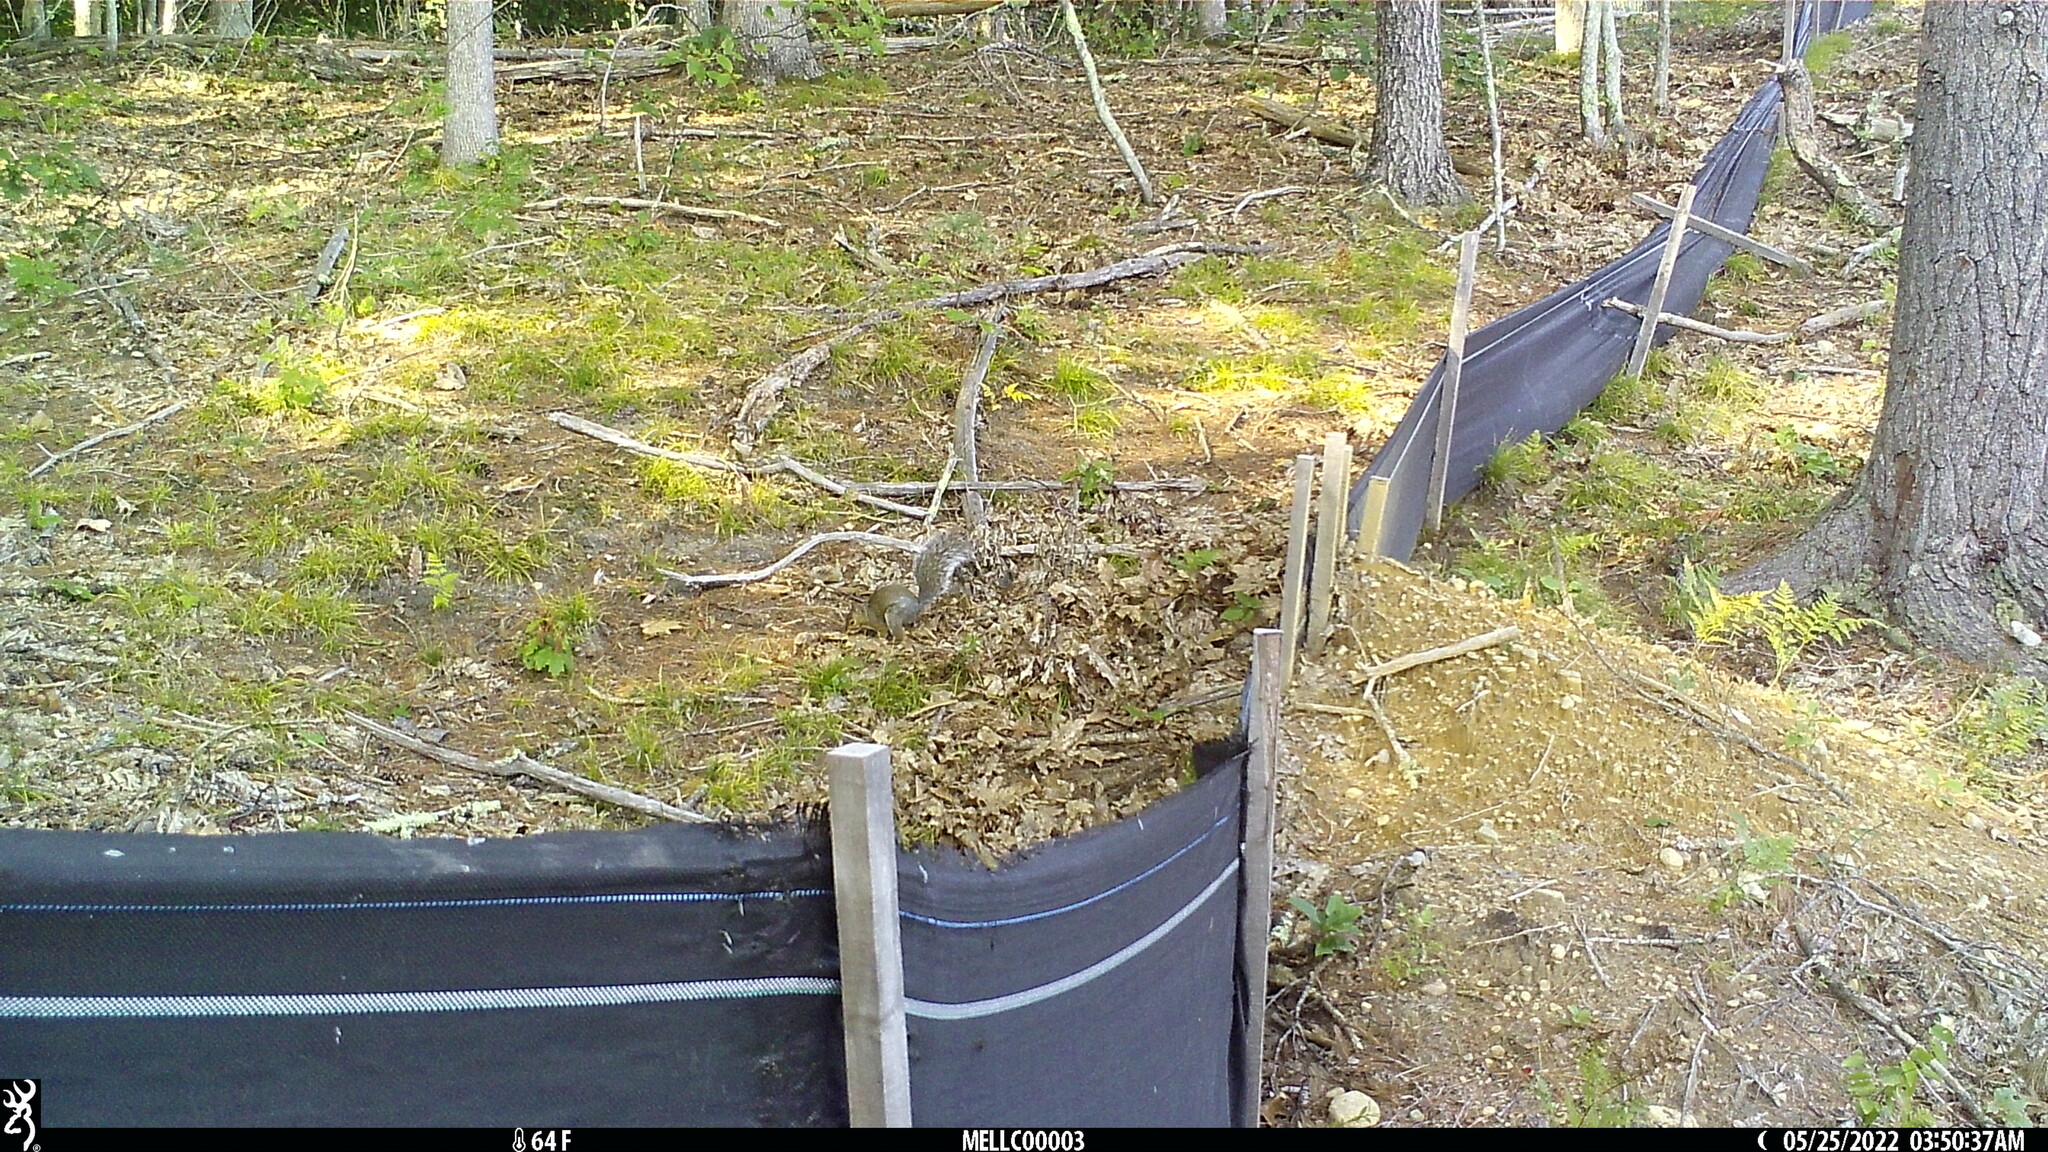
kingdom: Animalia
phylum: Chordata
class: Mammalia
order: Rodentia
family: Sciuridae
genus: Sciurus
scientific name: Sciurus carolinensis
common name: Eastern gray squirrel
